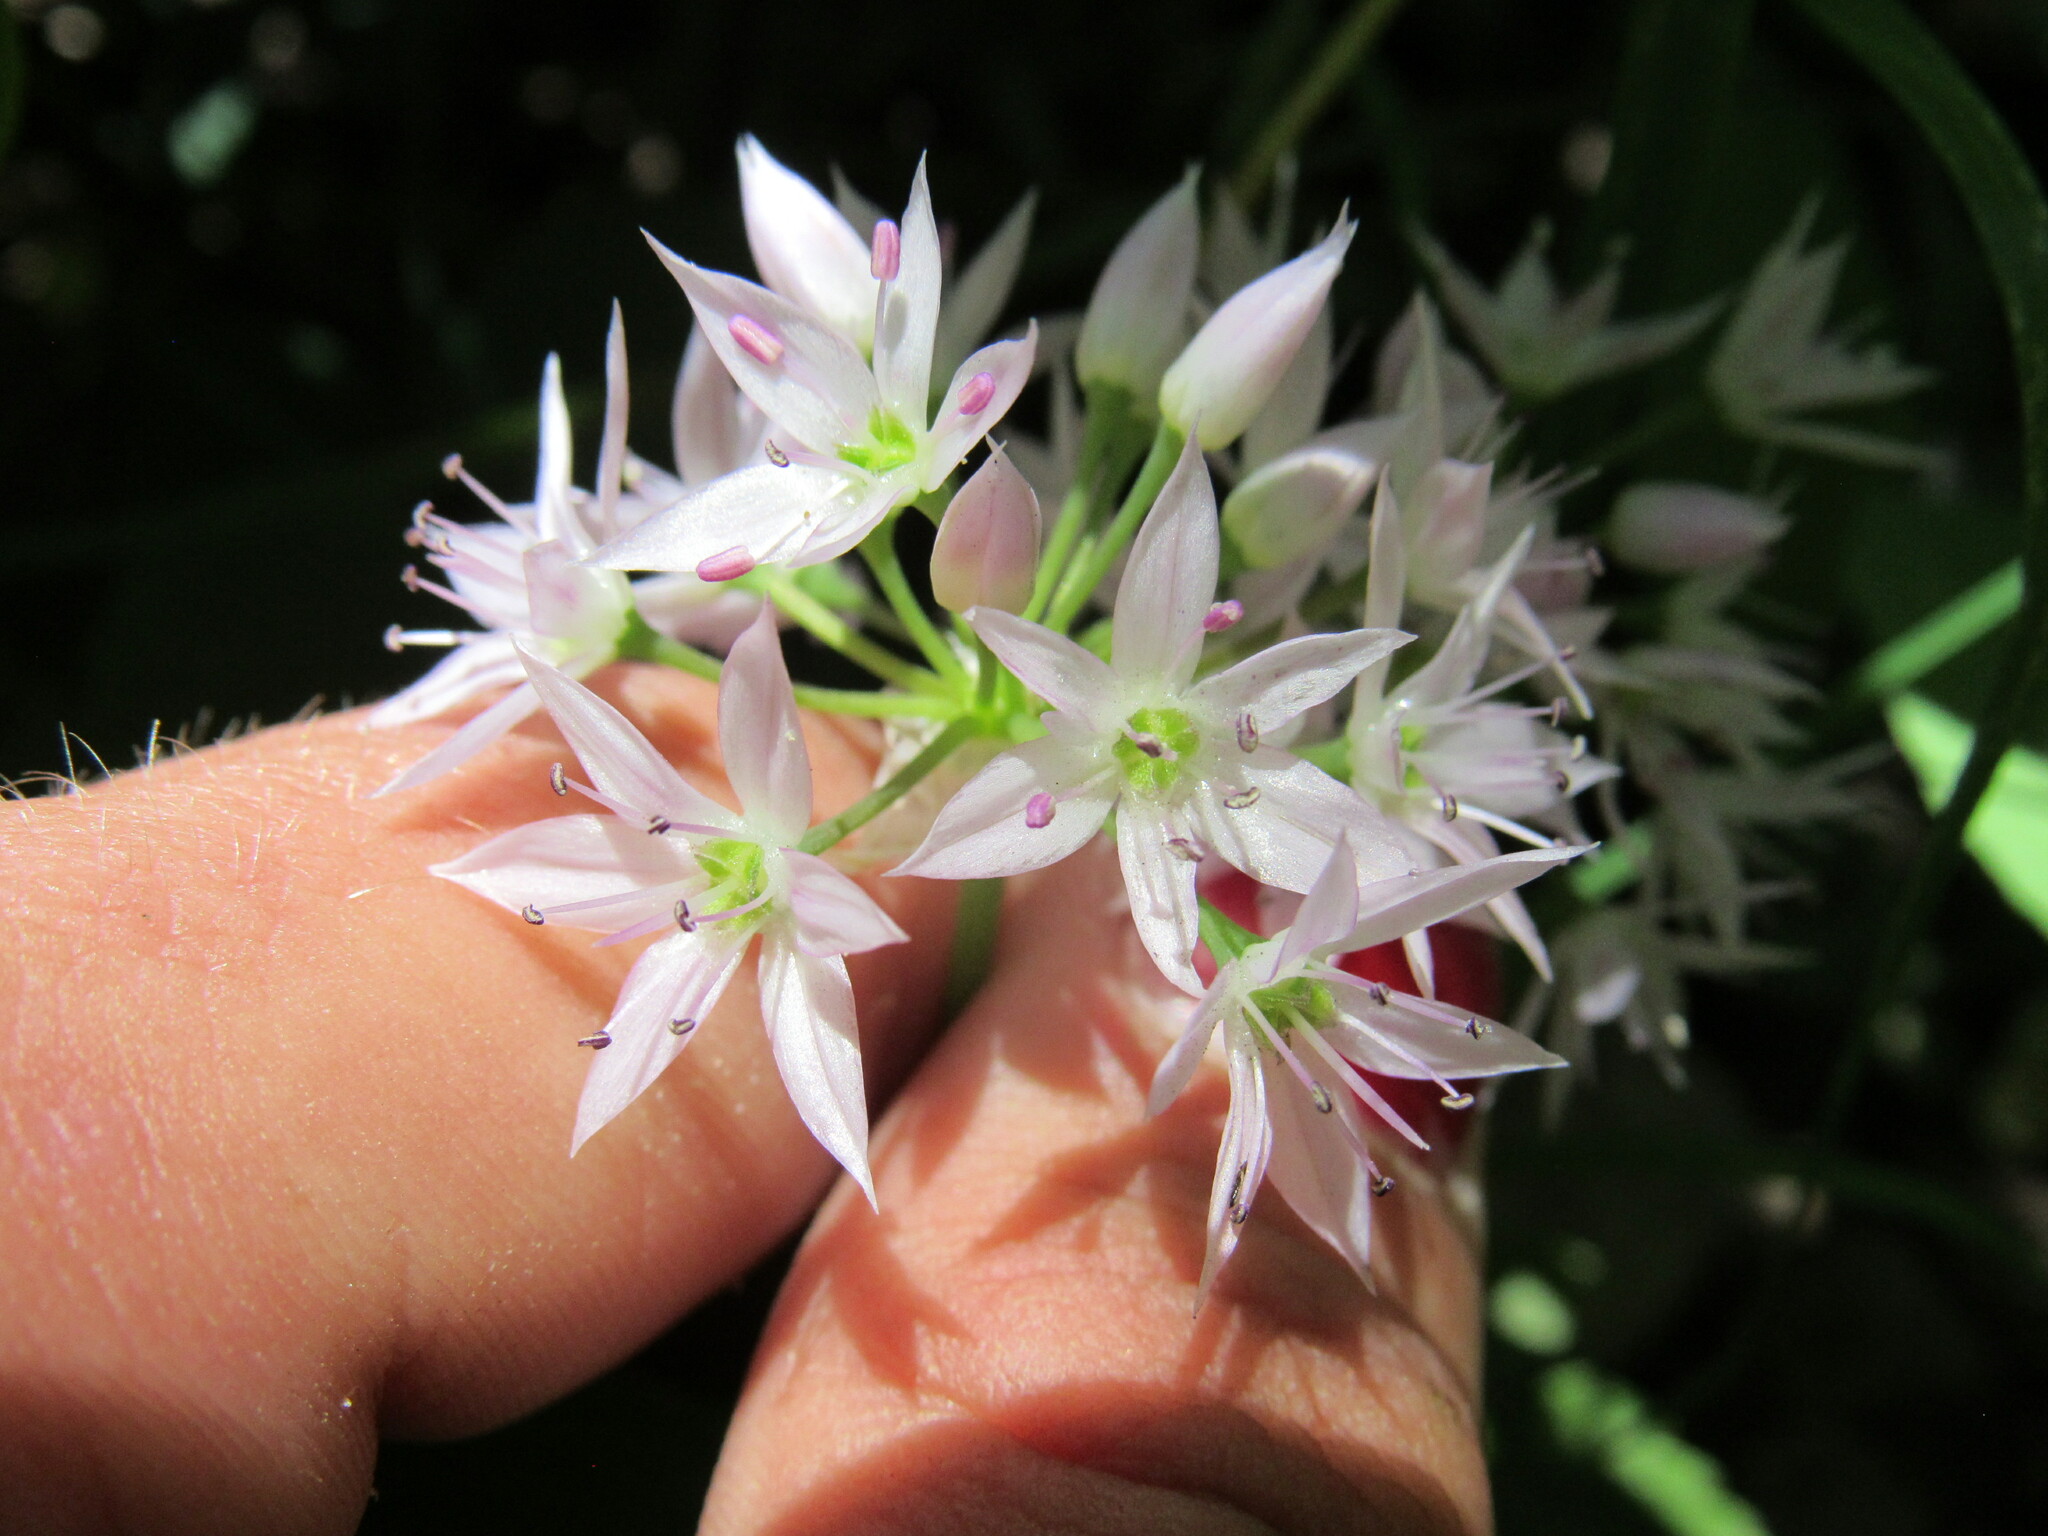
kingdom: Plantae
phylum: Tracheophyta
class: Liliopsida
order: Asparagales
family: Amaryllidaceae
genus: Allium
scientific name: Allium bisceptrum
